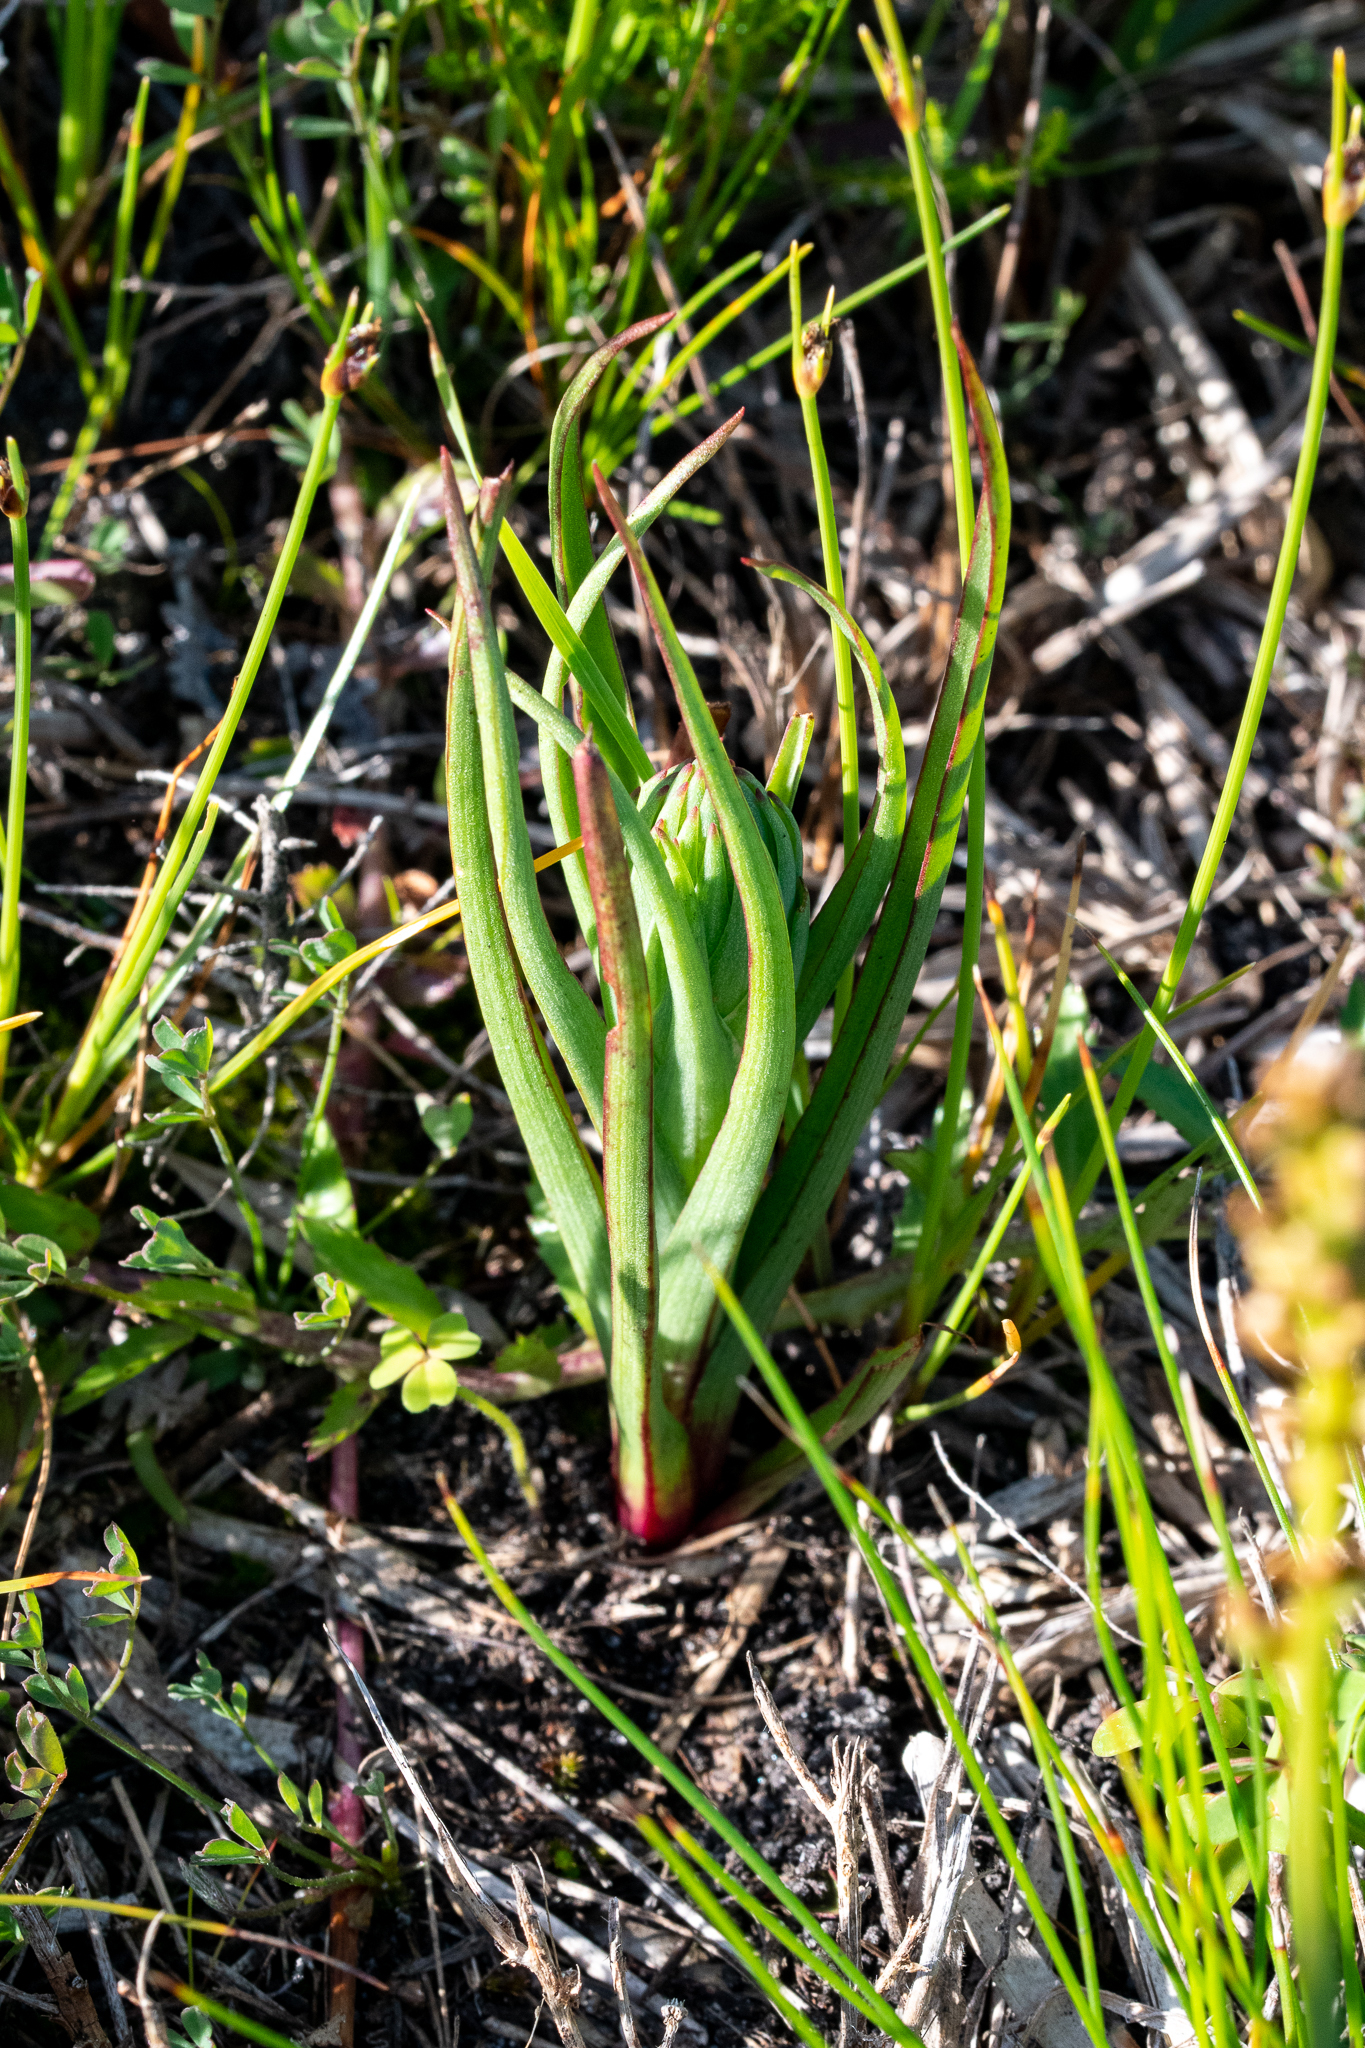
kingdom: Plantae
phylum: Tracheophyta
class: Liliopsida
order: Asparagales
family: Orchidaceae
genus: Disa
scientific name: Disa bracteata
